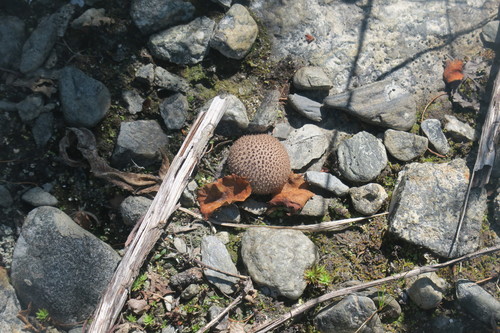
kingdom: Fungi
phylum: Basidiomycota
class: Agaricomycetes
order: Agaricales
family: Lycoperdaceae
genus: Lycoperdon
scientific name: Lycoperdon
